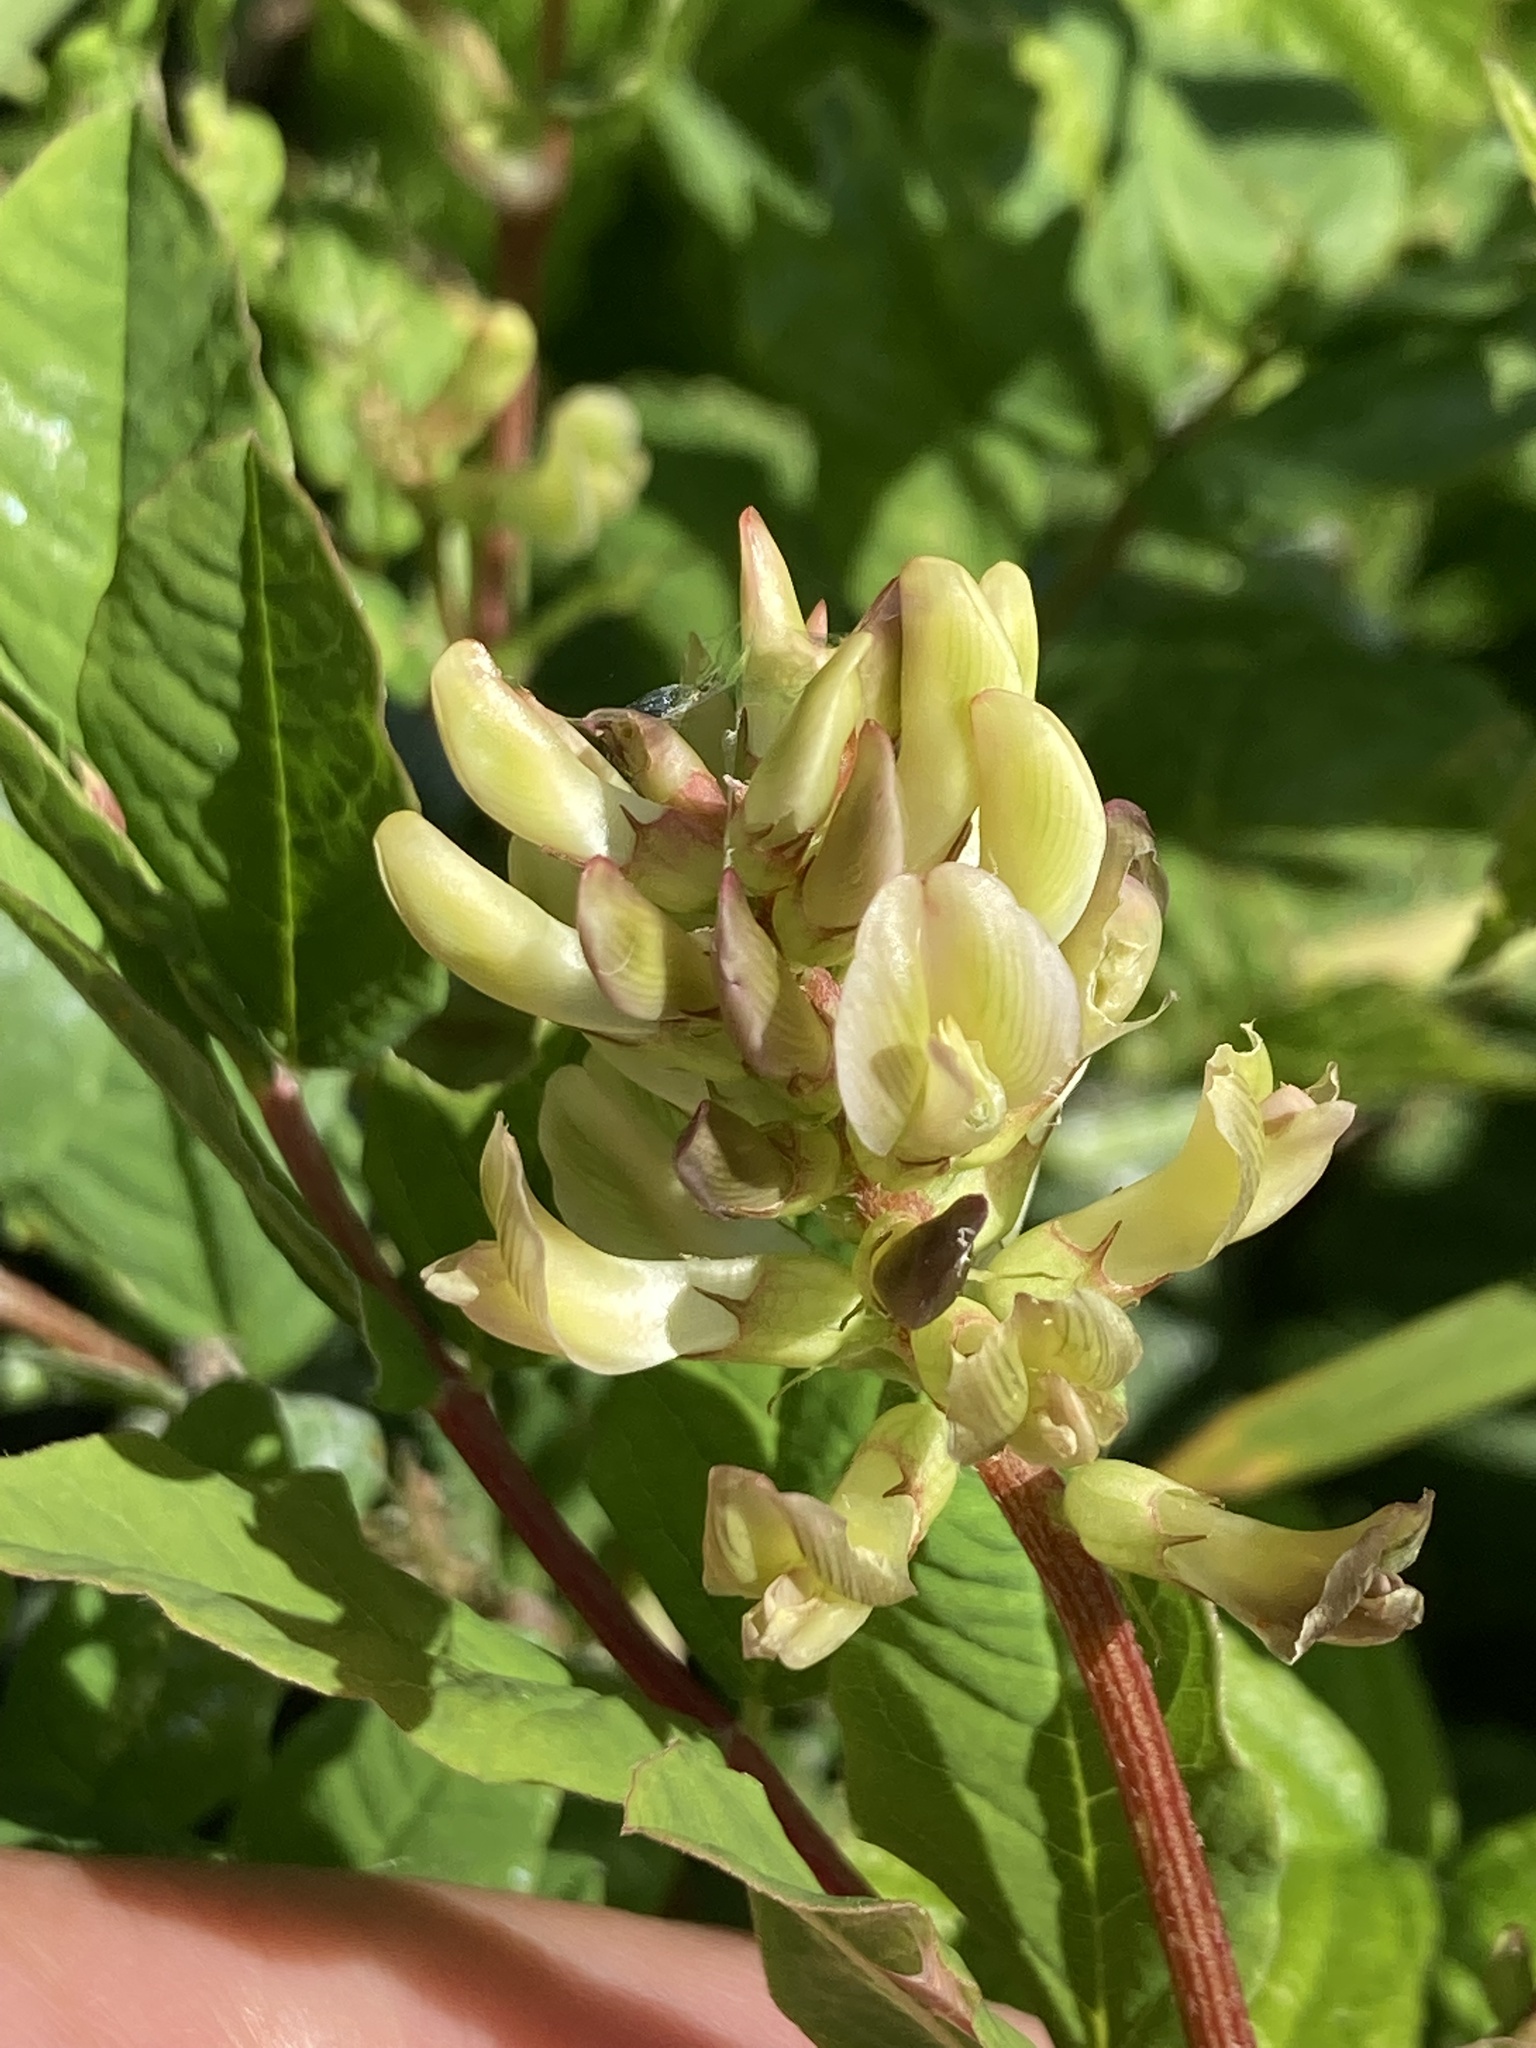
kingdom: Plantae
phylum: Tracheophyta
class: Magnoliopsida
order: Fabales
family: Fabaceae
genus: Astragalus
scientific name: Astragalus glycyphyllos
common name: Wild liquorice
